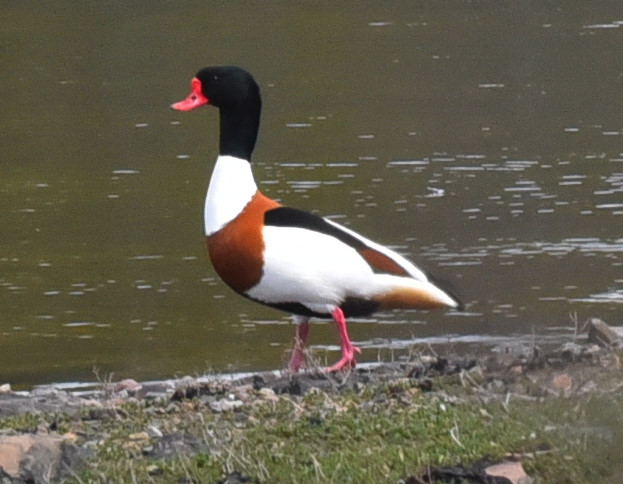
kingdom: Animalia
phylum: Chordata
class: Aves
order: Anseriformes
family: Anatidae
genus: Tadorna
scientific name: Tadorna tadorna
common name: Common shelduck
